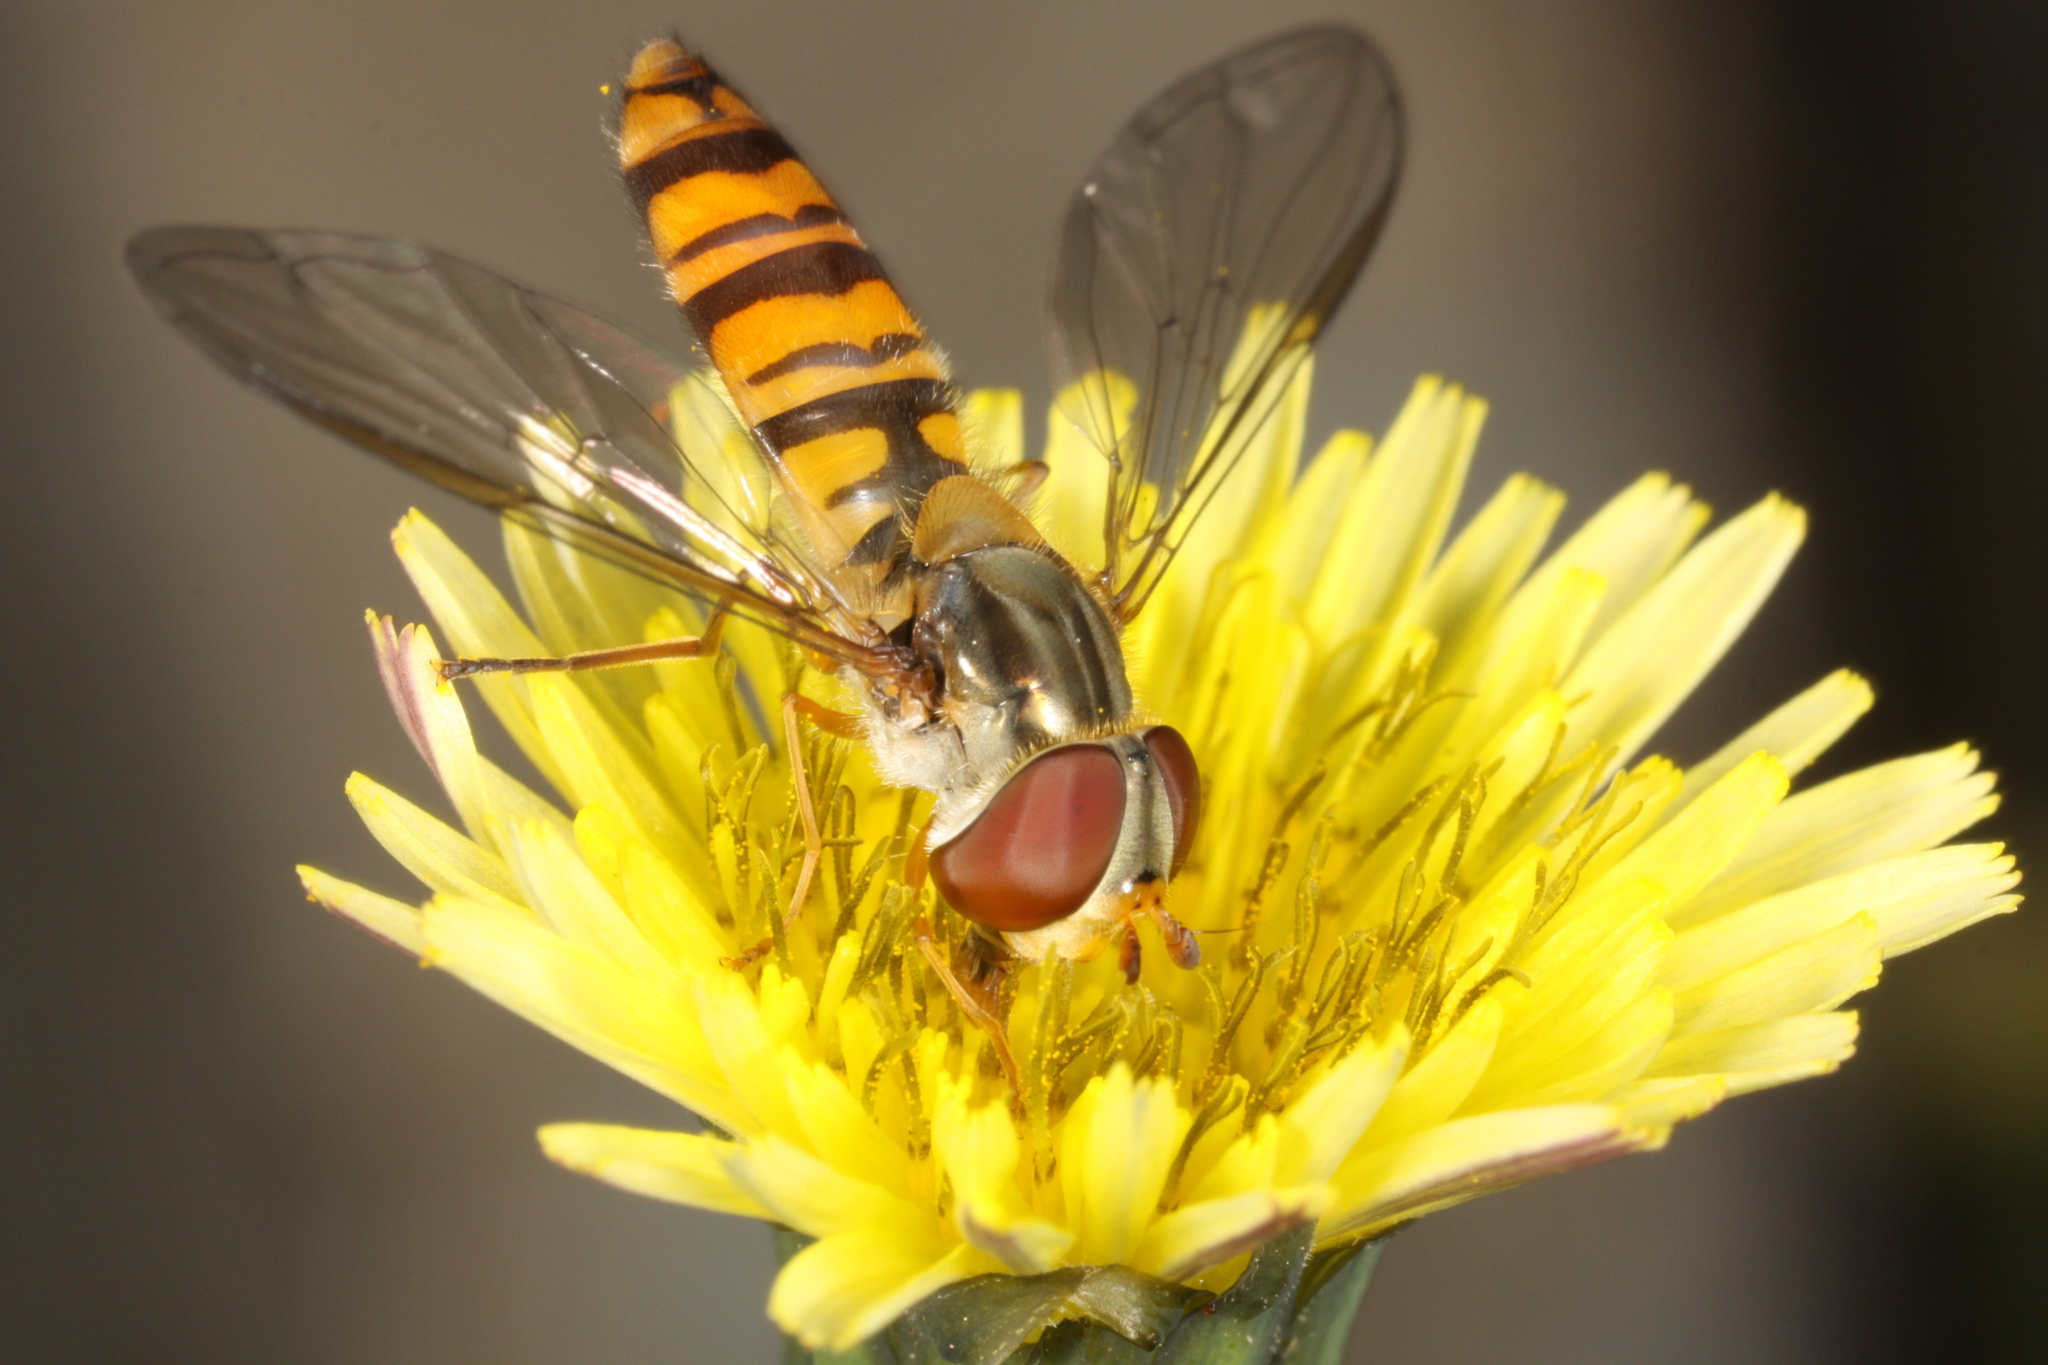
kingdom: Animalia
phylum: Arthropoda
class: Insecta
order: Diptera
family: Syrphidae
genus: Episyrphus
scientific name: Episyrphus balteatus
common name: Marmalade hoverfly
